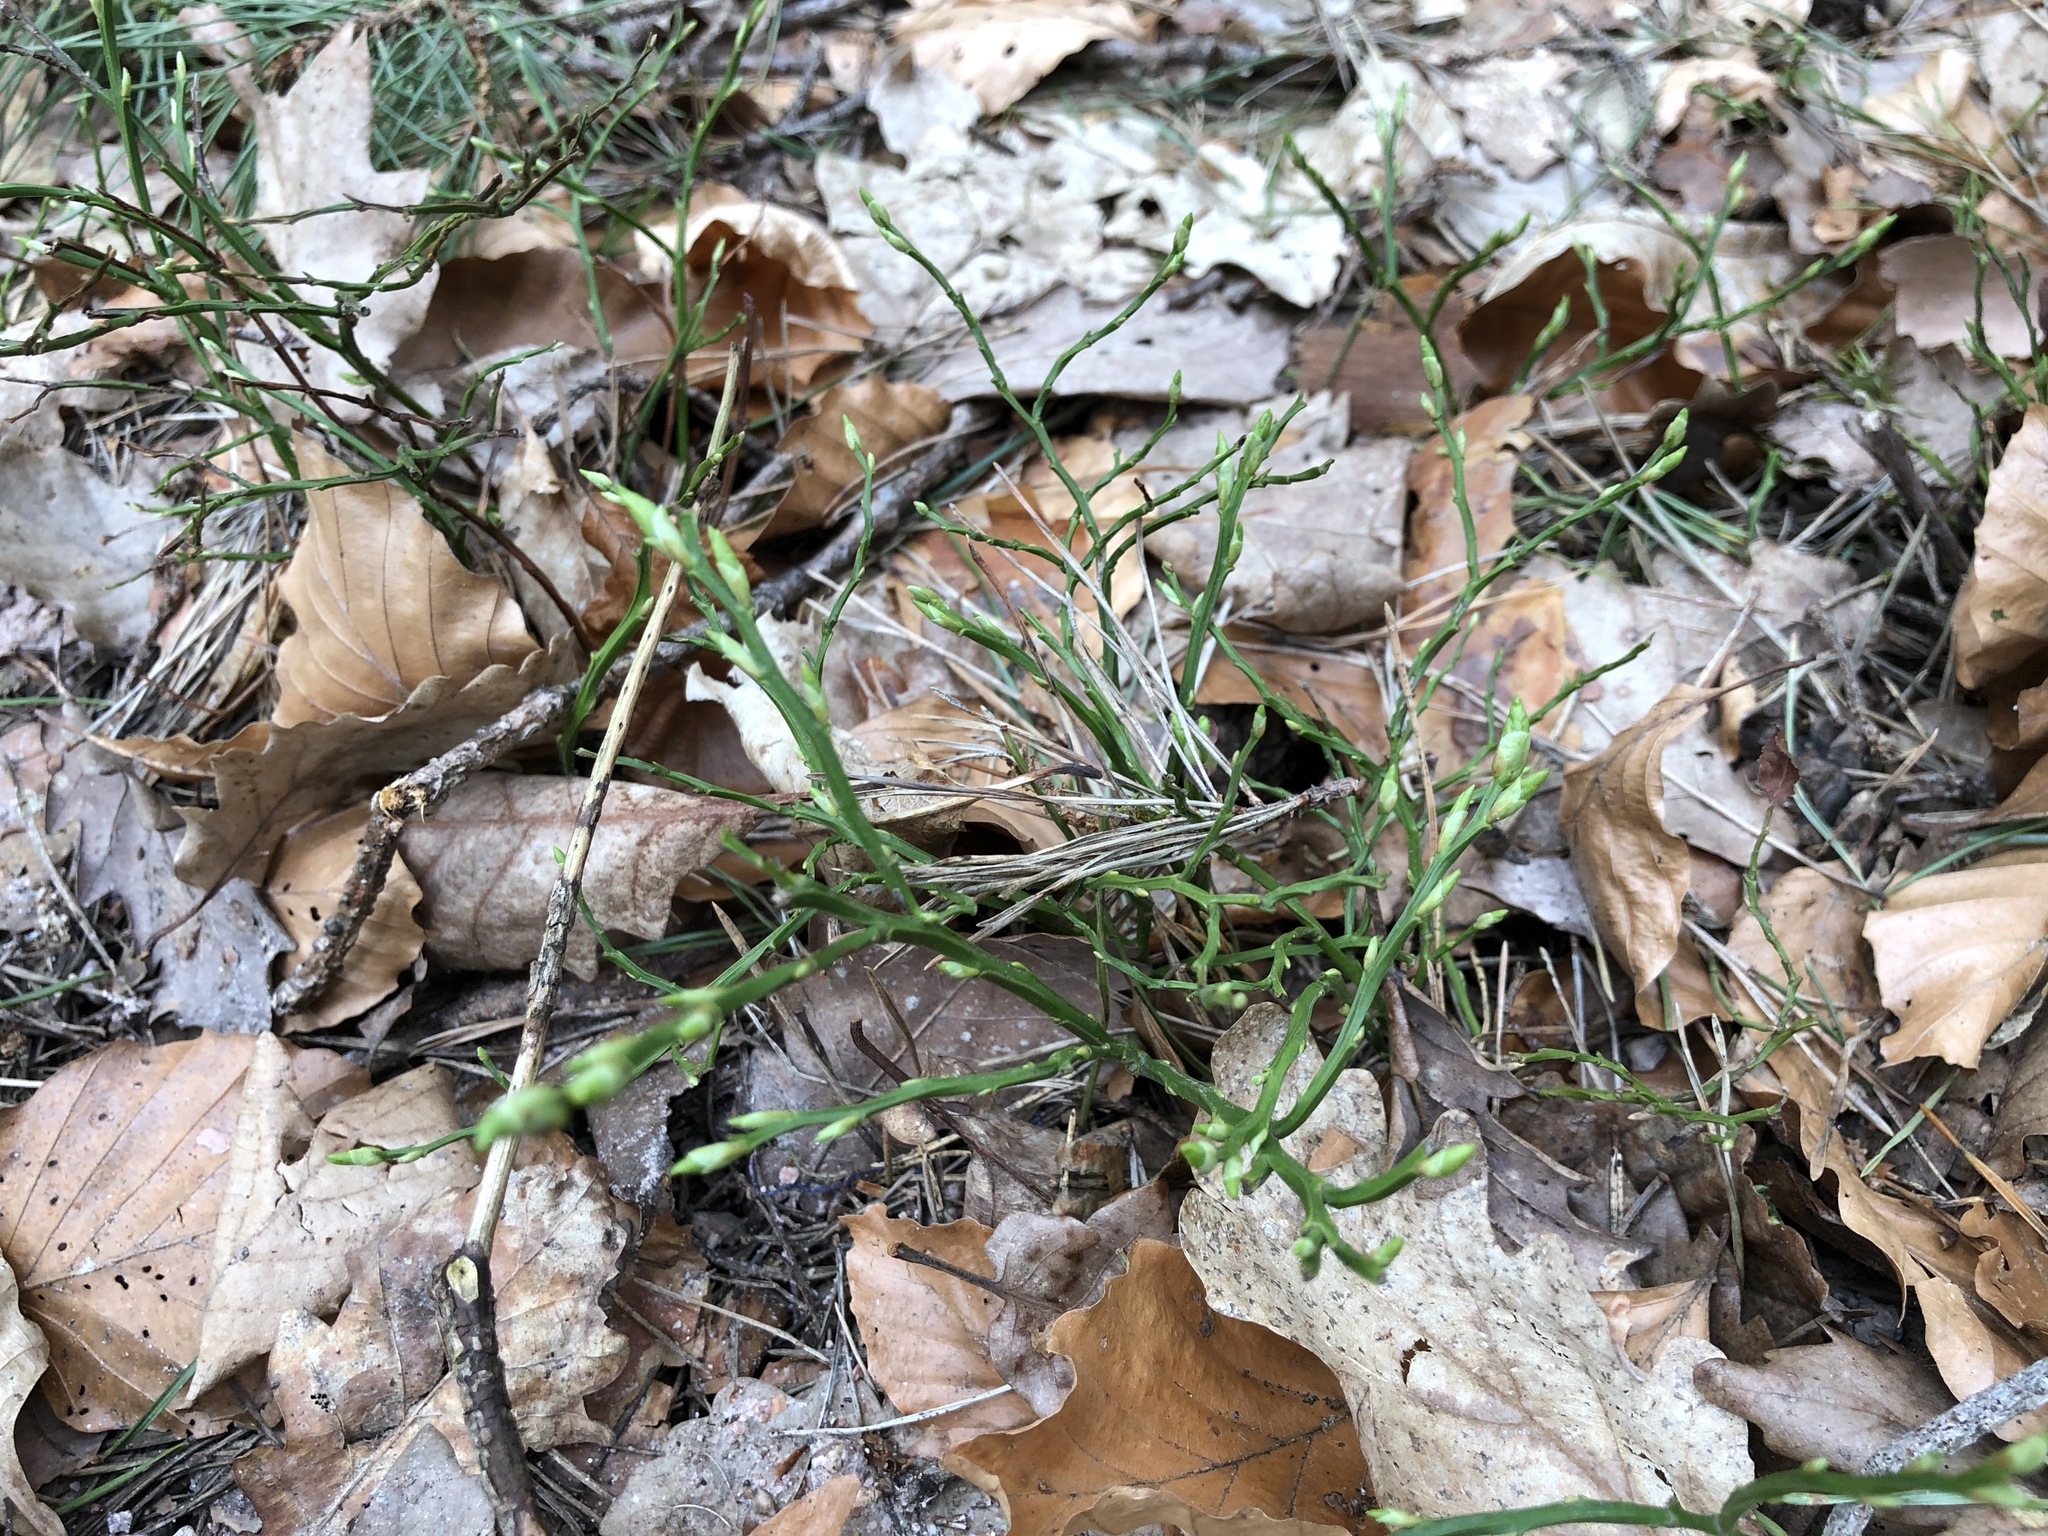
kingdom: Plantae
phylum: Tracheophyta
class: Magnoliopsida
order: Ericales
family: Ericaceae
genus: Vaccinium
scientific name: Vaccinium myrtillus
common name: Bilberry
